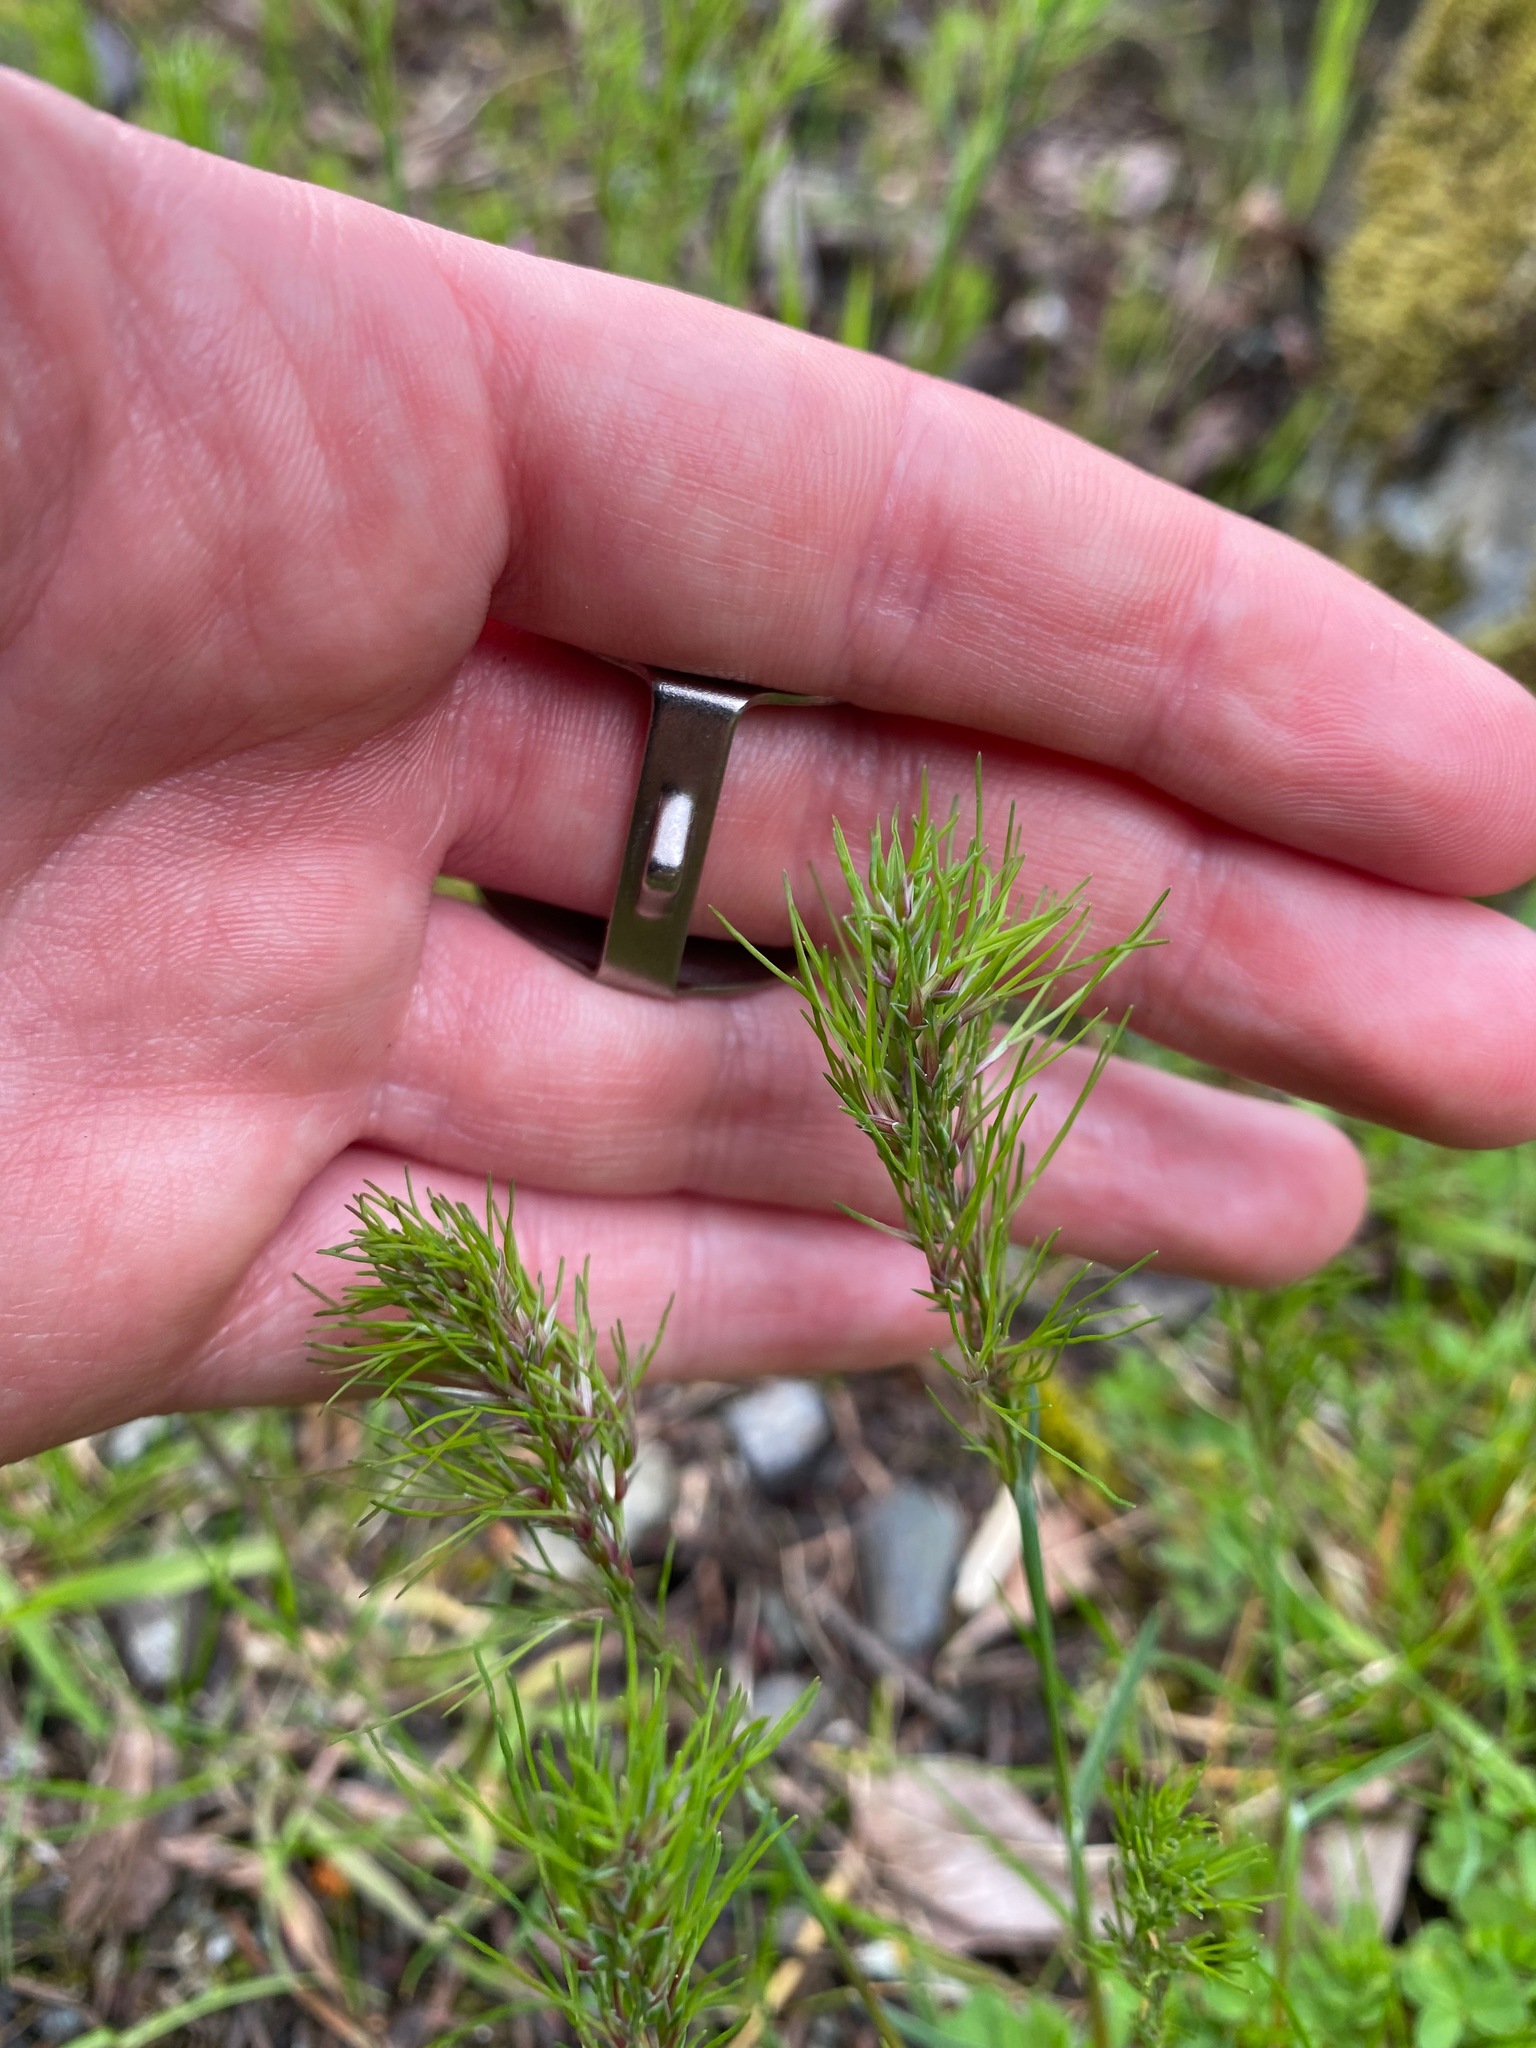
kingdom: Plantae
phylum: Tracheophyta
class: Liliopsida
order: Poales
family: Poaceae
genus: Poa
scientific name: Poa bulbosa
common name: Bulbous bluegrass
